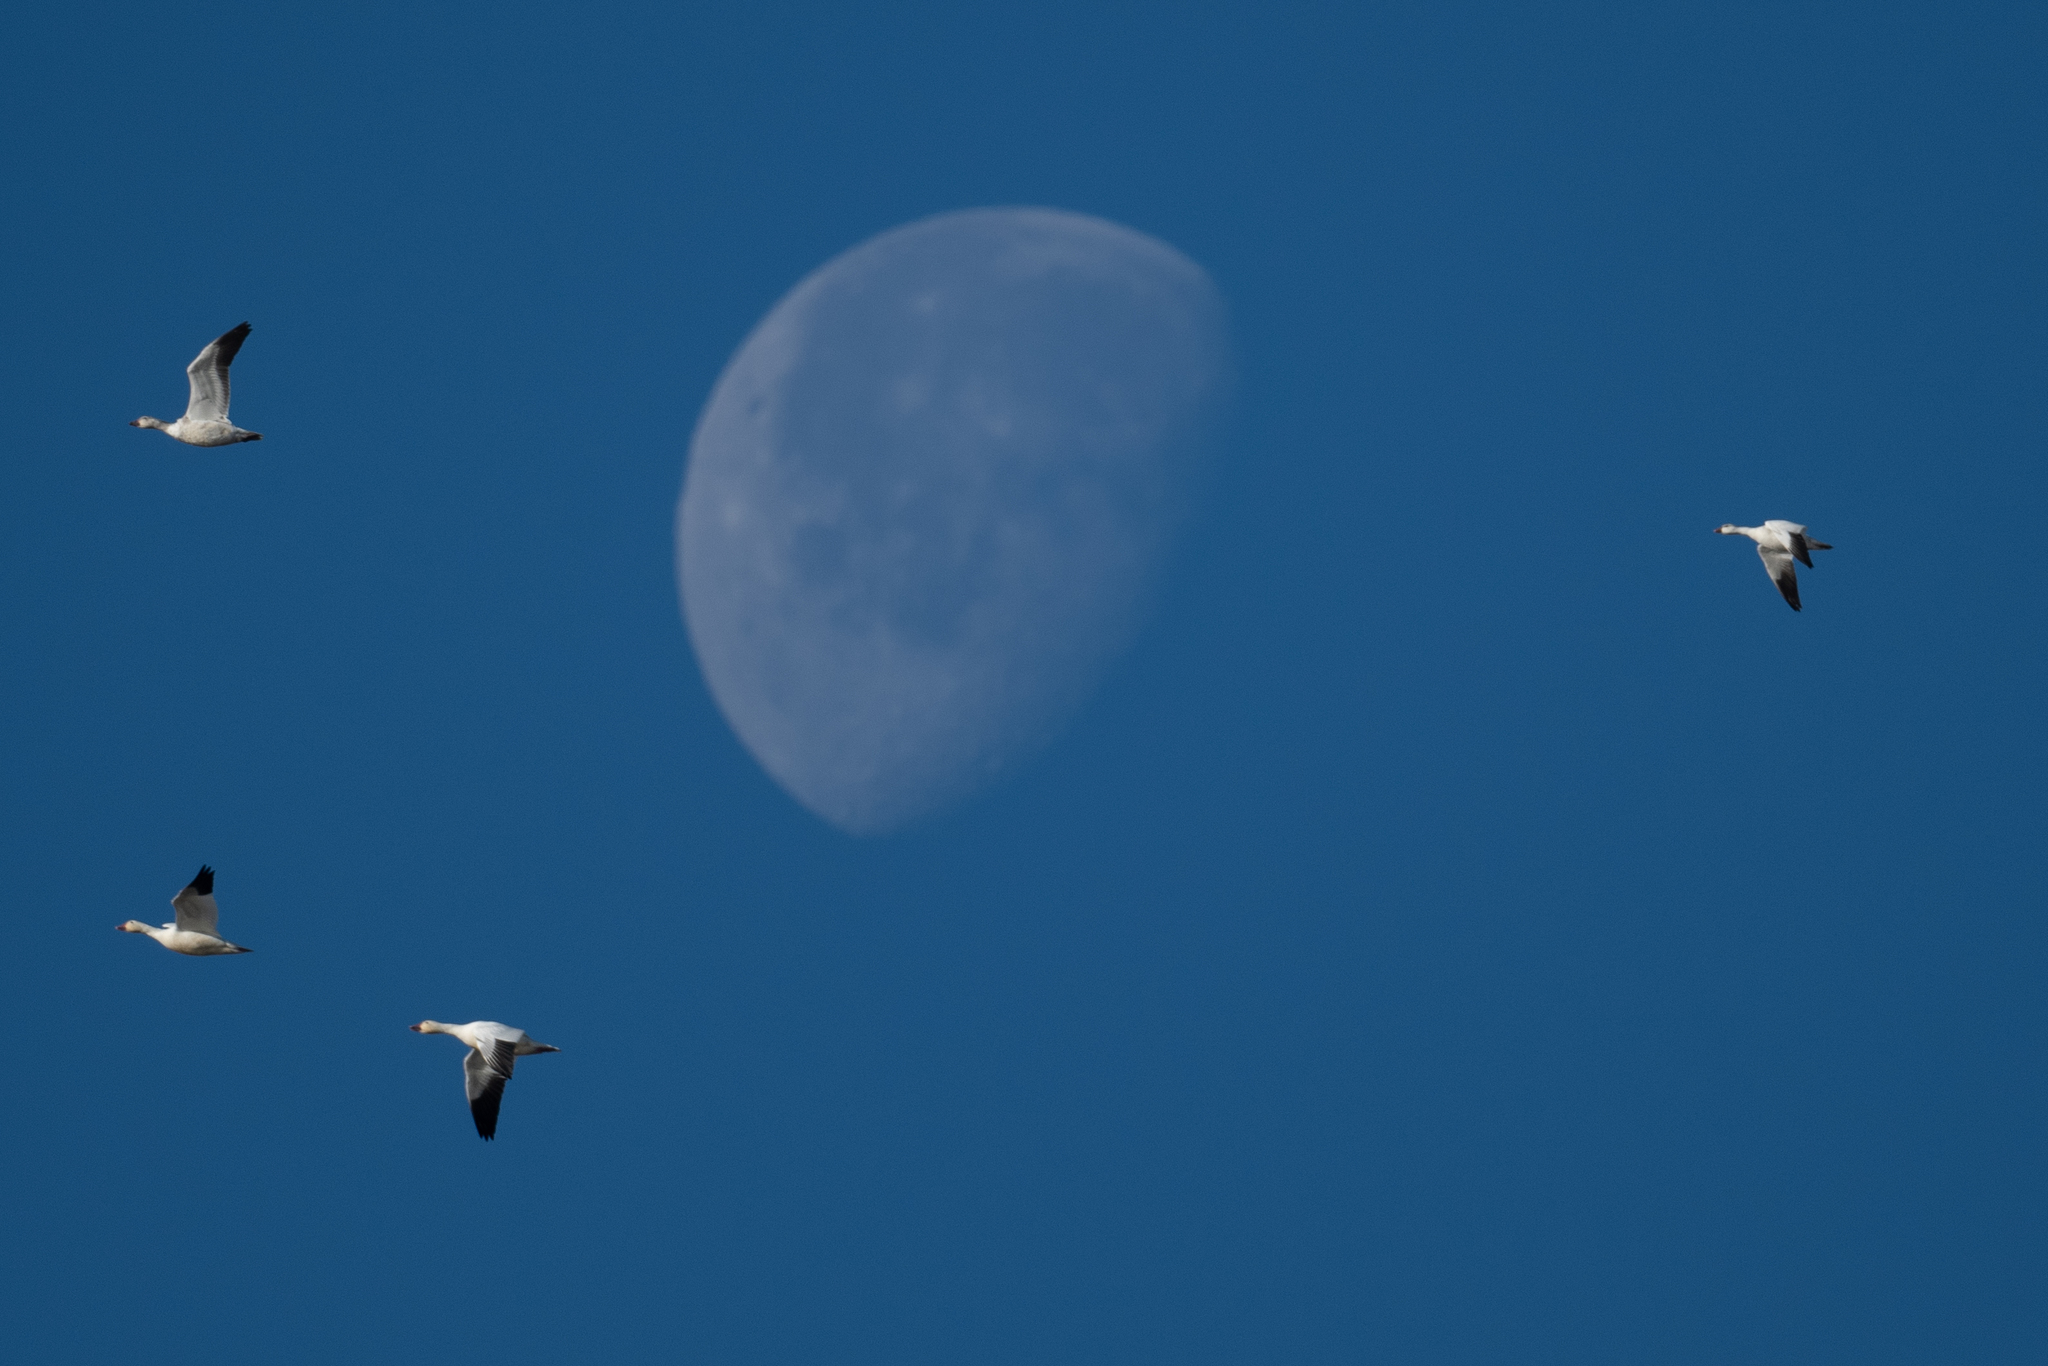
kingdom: Animalia
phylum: Chordata
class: Aves
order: Anseriformes
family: Anatidae
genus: Anser
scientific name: Anser caerulescens
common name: Snow goose
